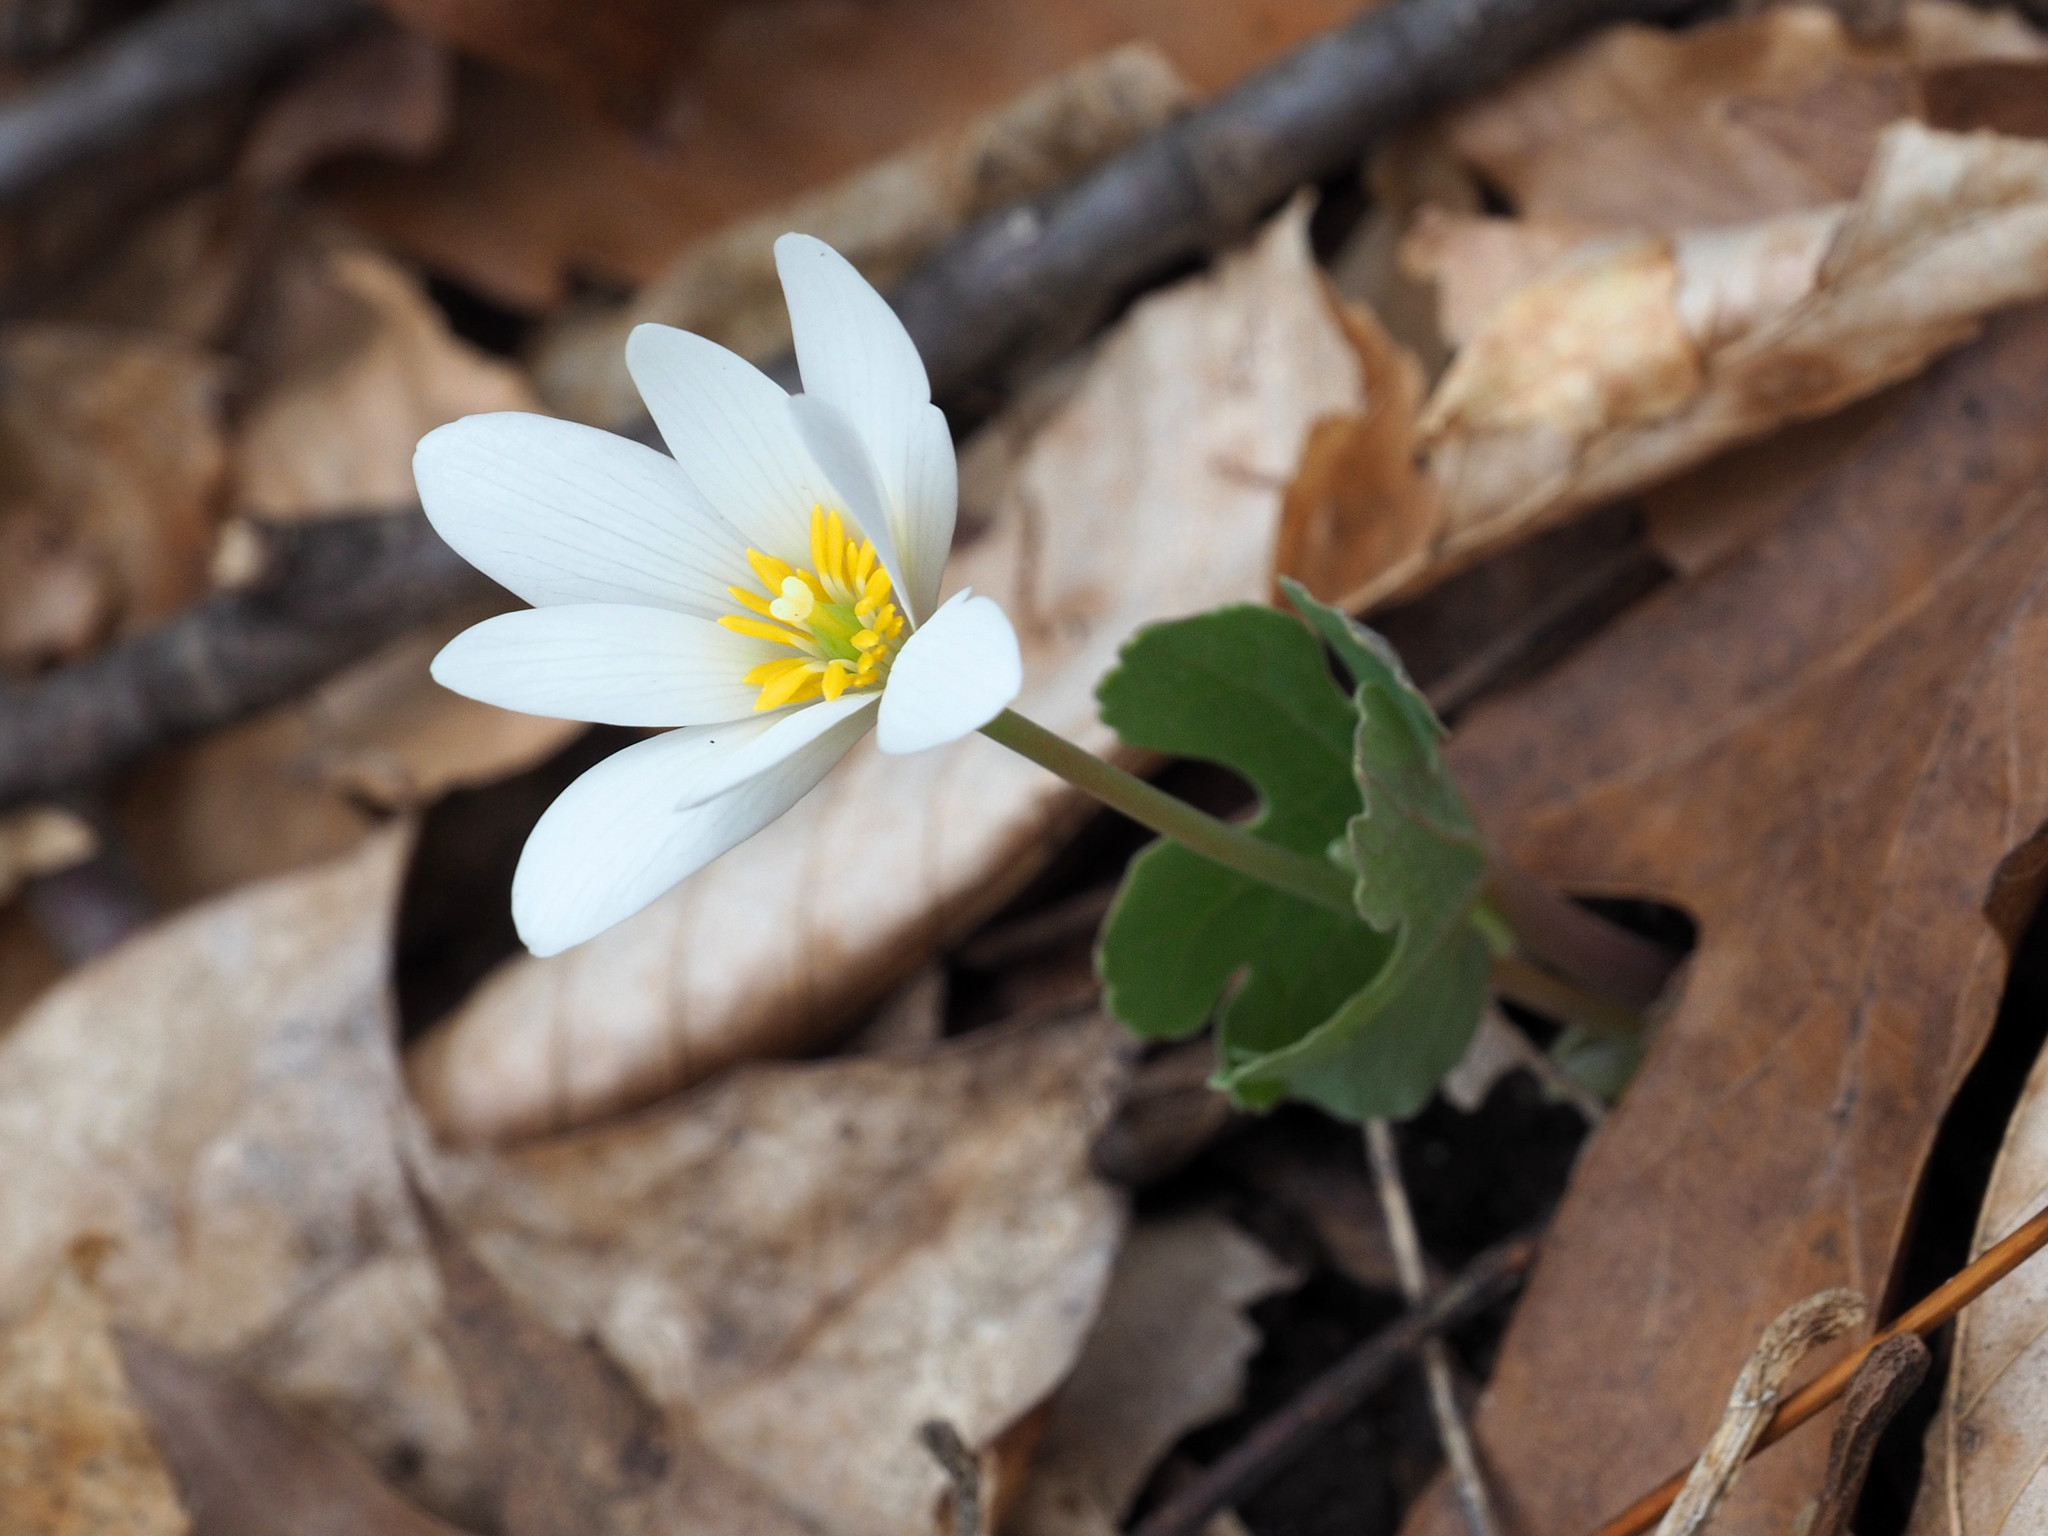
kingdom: Plantae
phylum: Tracheophyta
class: Magnoliopsida
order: Ranunculales
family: Papaveraceae
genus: Sanguinaria
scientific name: Sanguinaria canadensis
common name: Bloodroot
